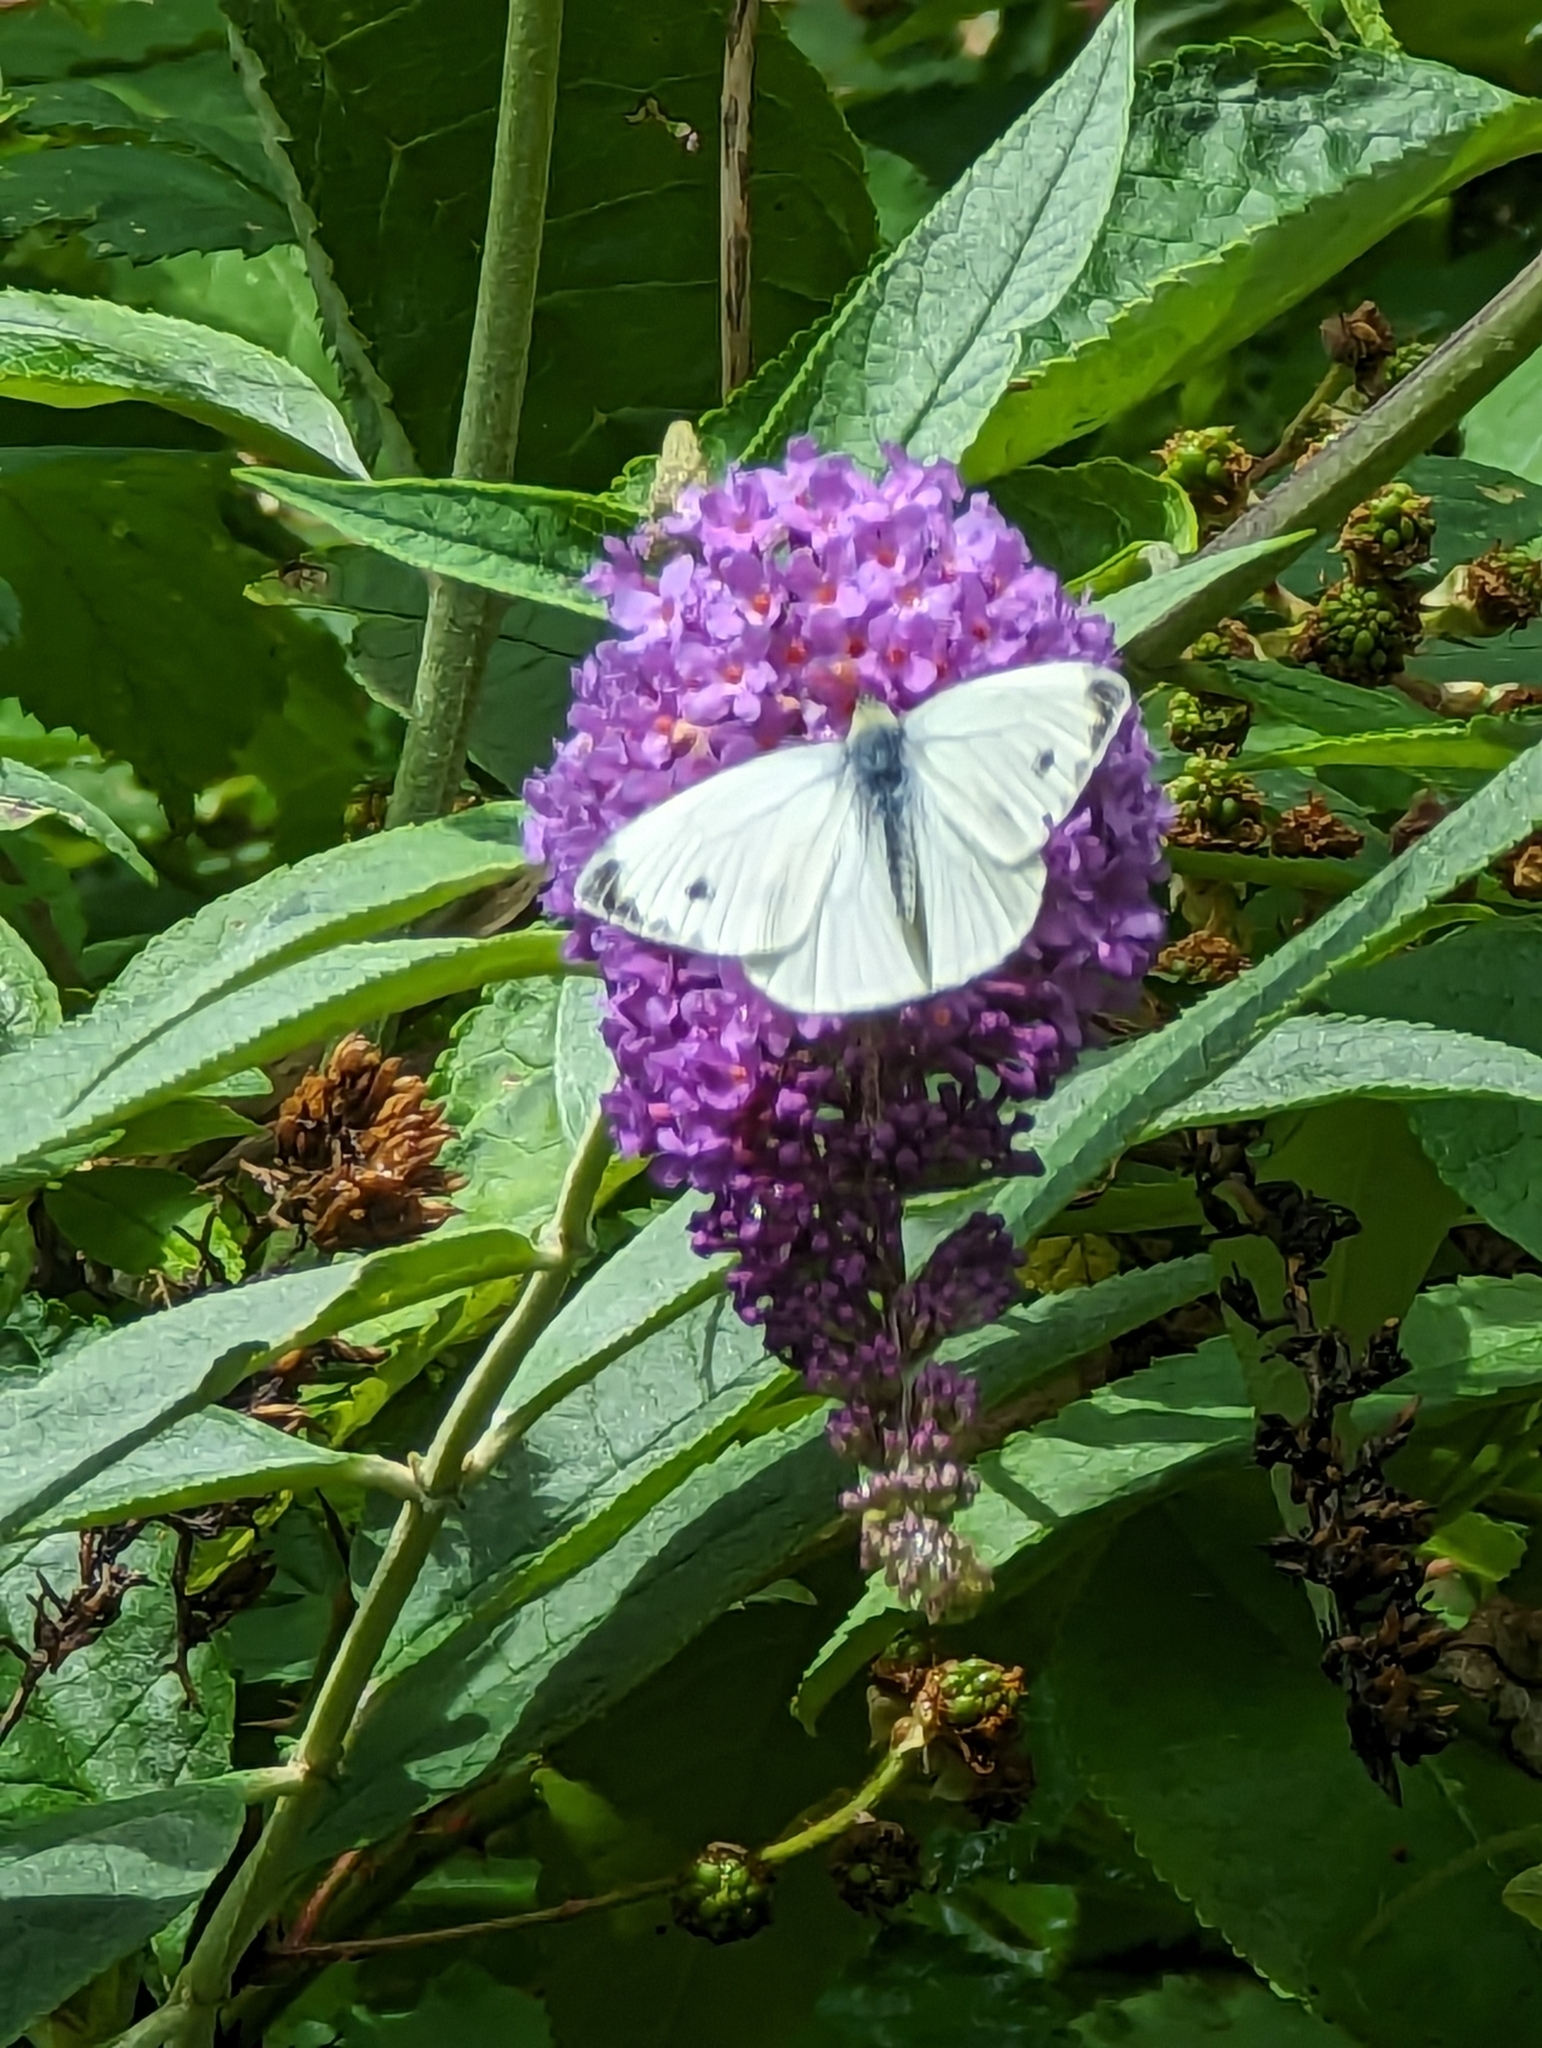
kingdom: Animalia
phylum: Arthropoda
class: Insecta
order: Lepidoptera
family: Pieridae
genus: Pieris
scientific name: Pieris napi
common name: Green-veined white
